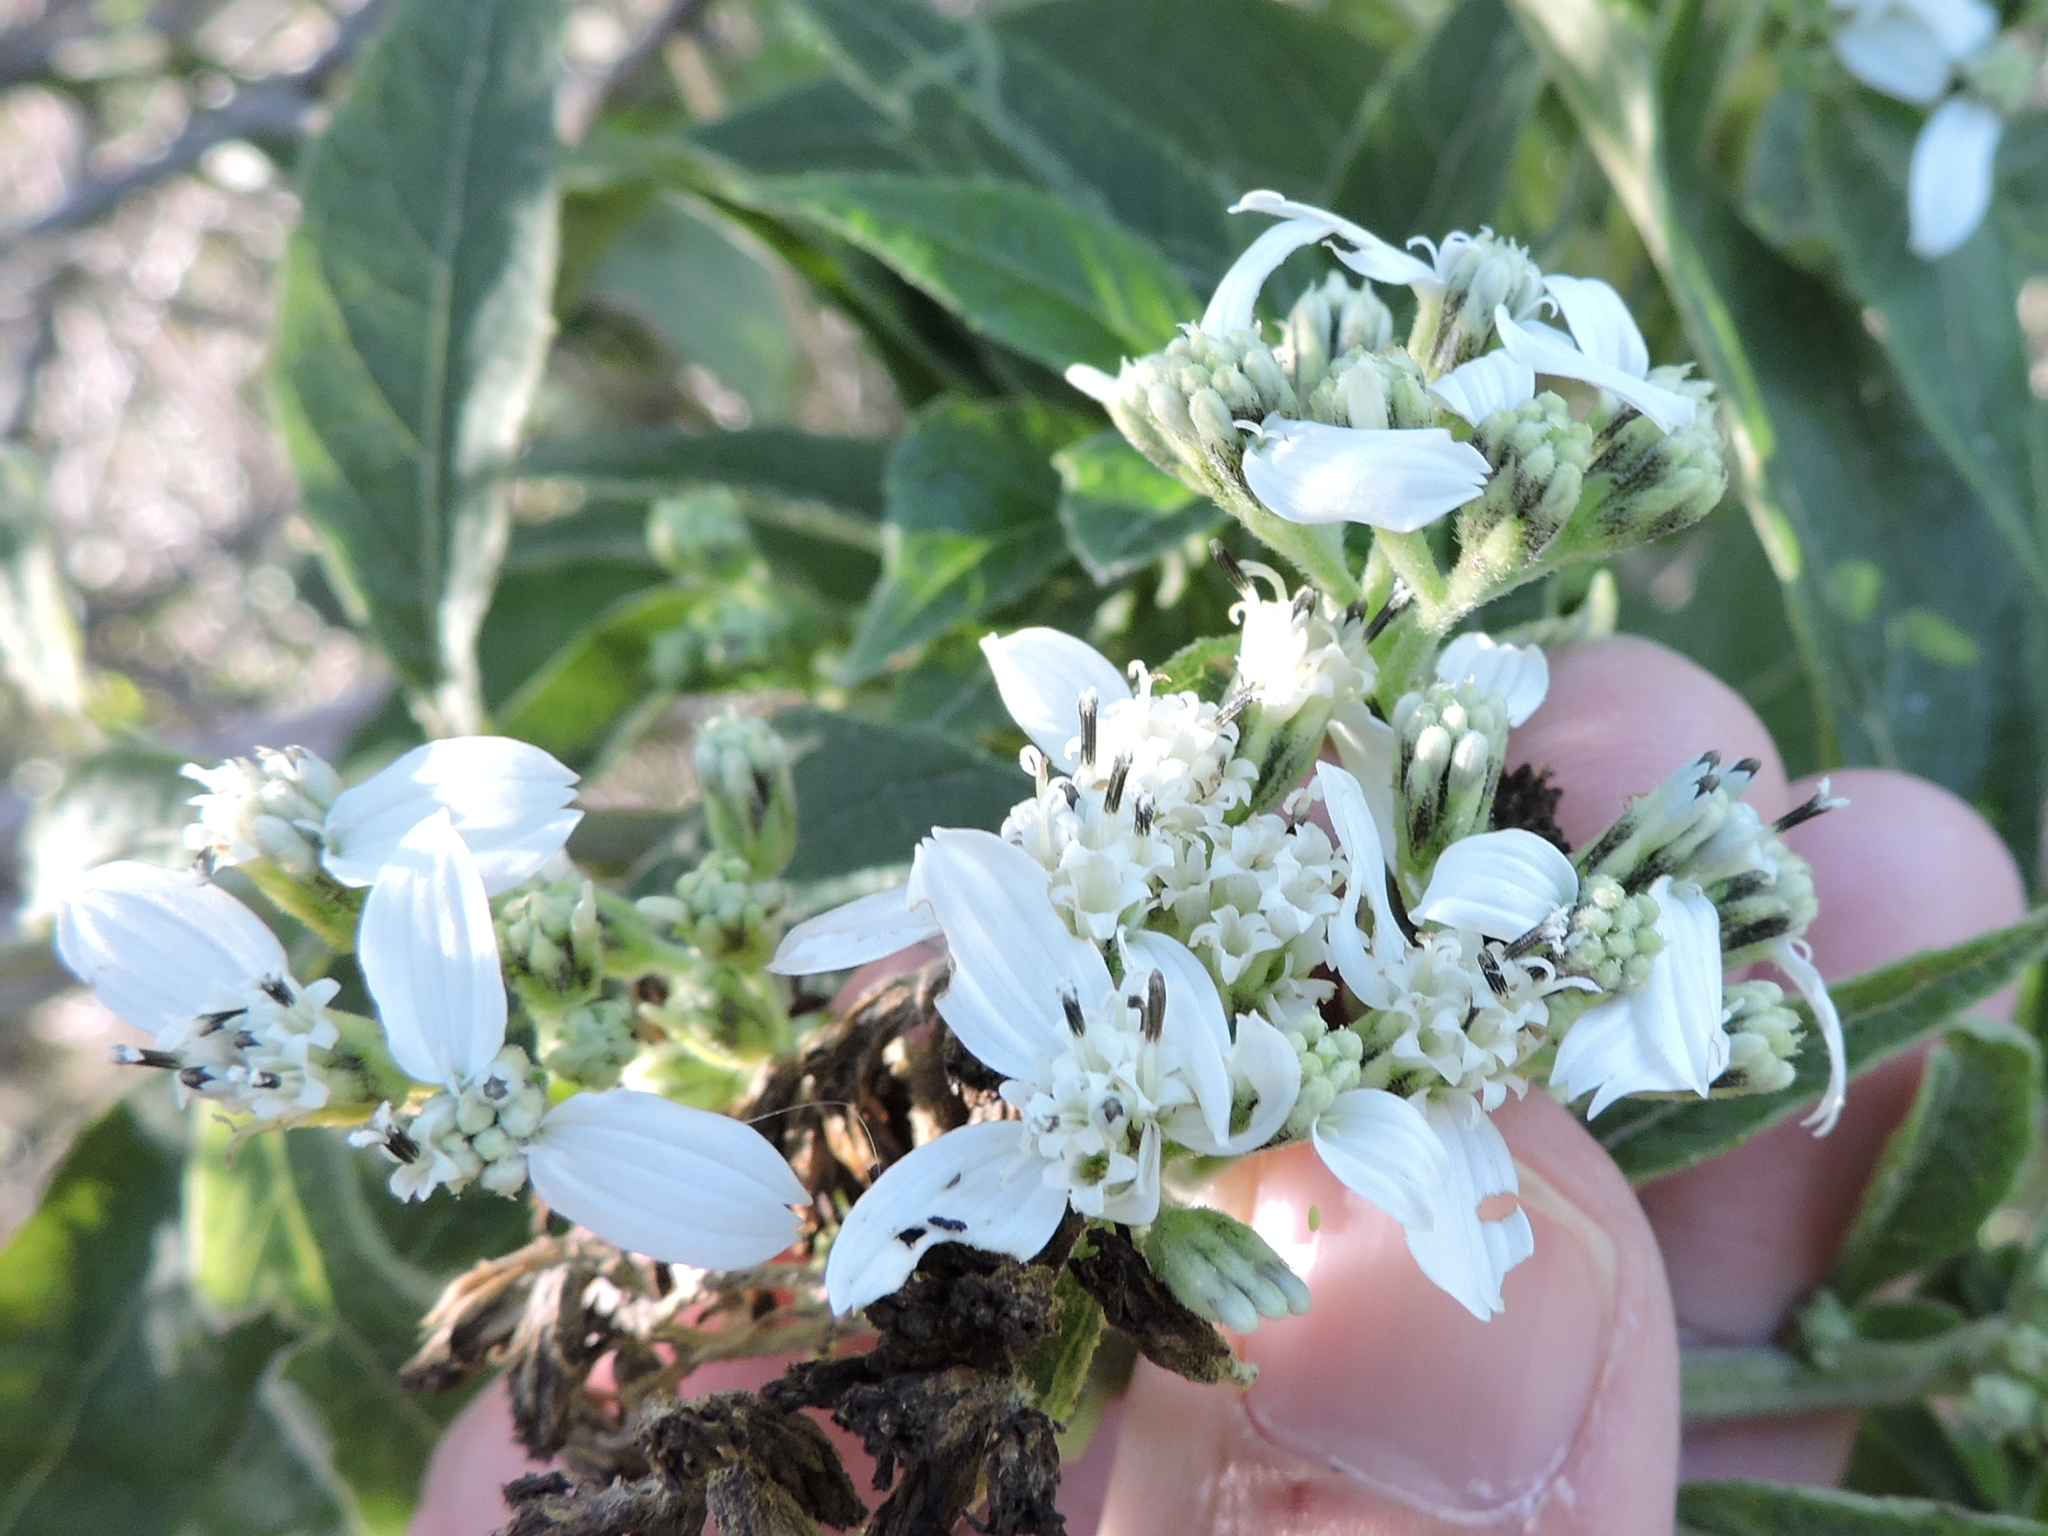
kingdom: Plantae
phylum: Tracheophyta
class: Magnoliopsida
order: Asterales
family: Asteraceae
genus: Verbesina
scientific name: Verbesina virginica
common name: Frostweed
